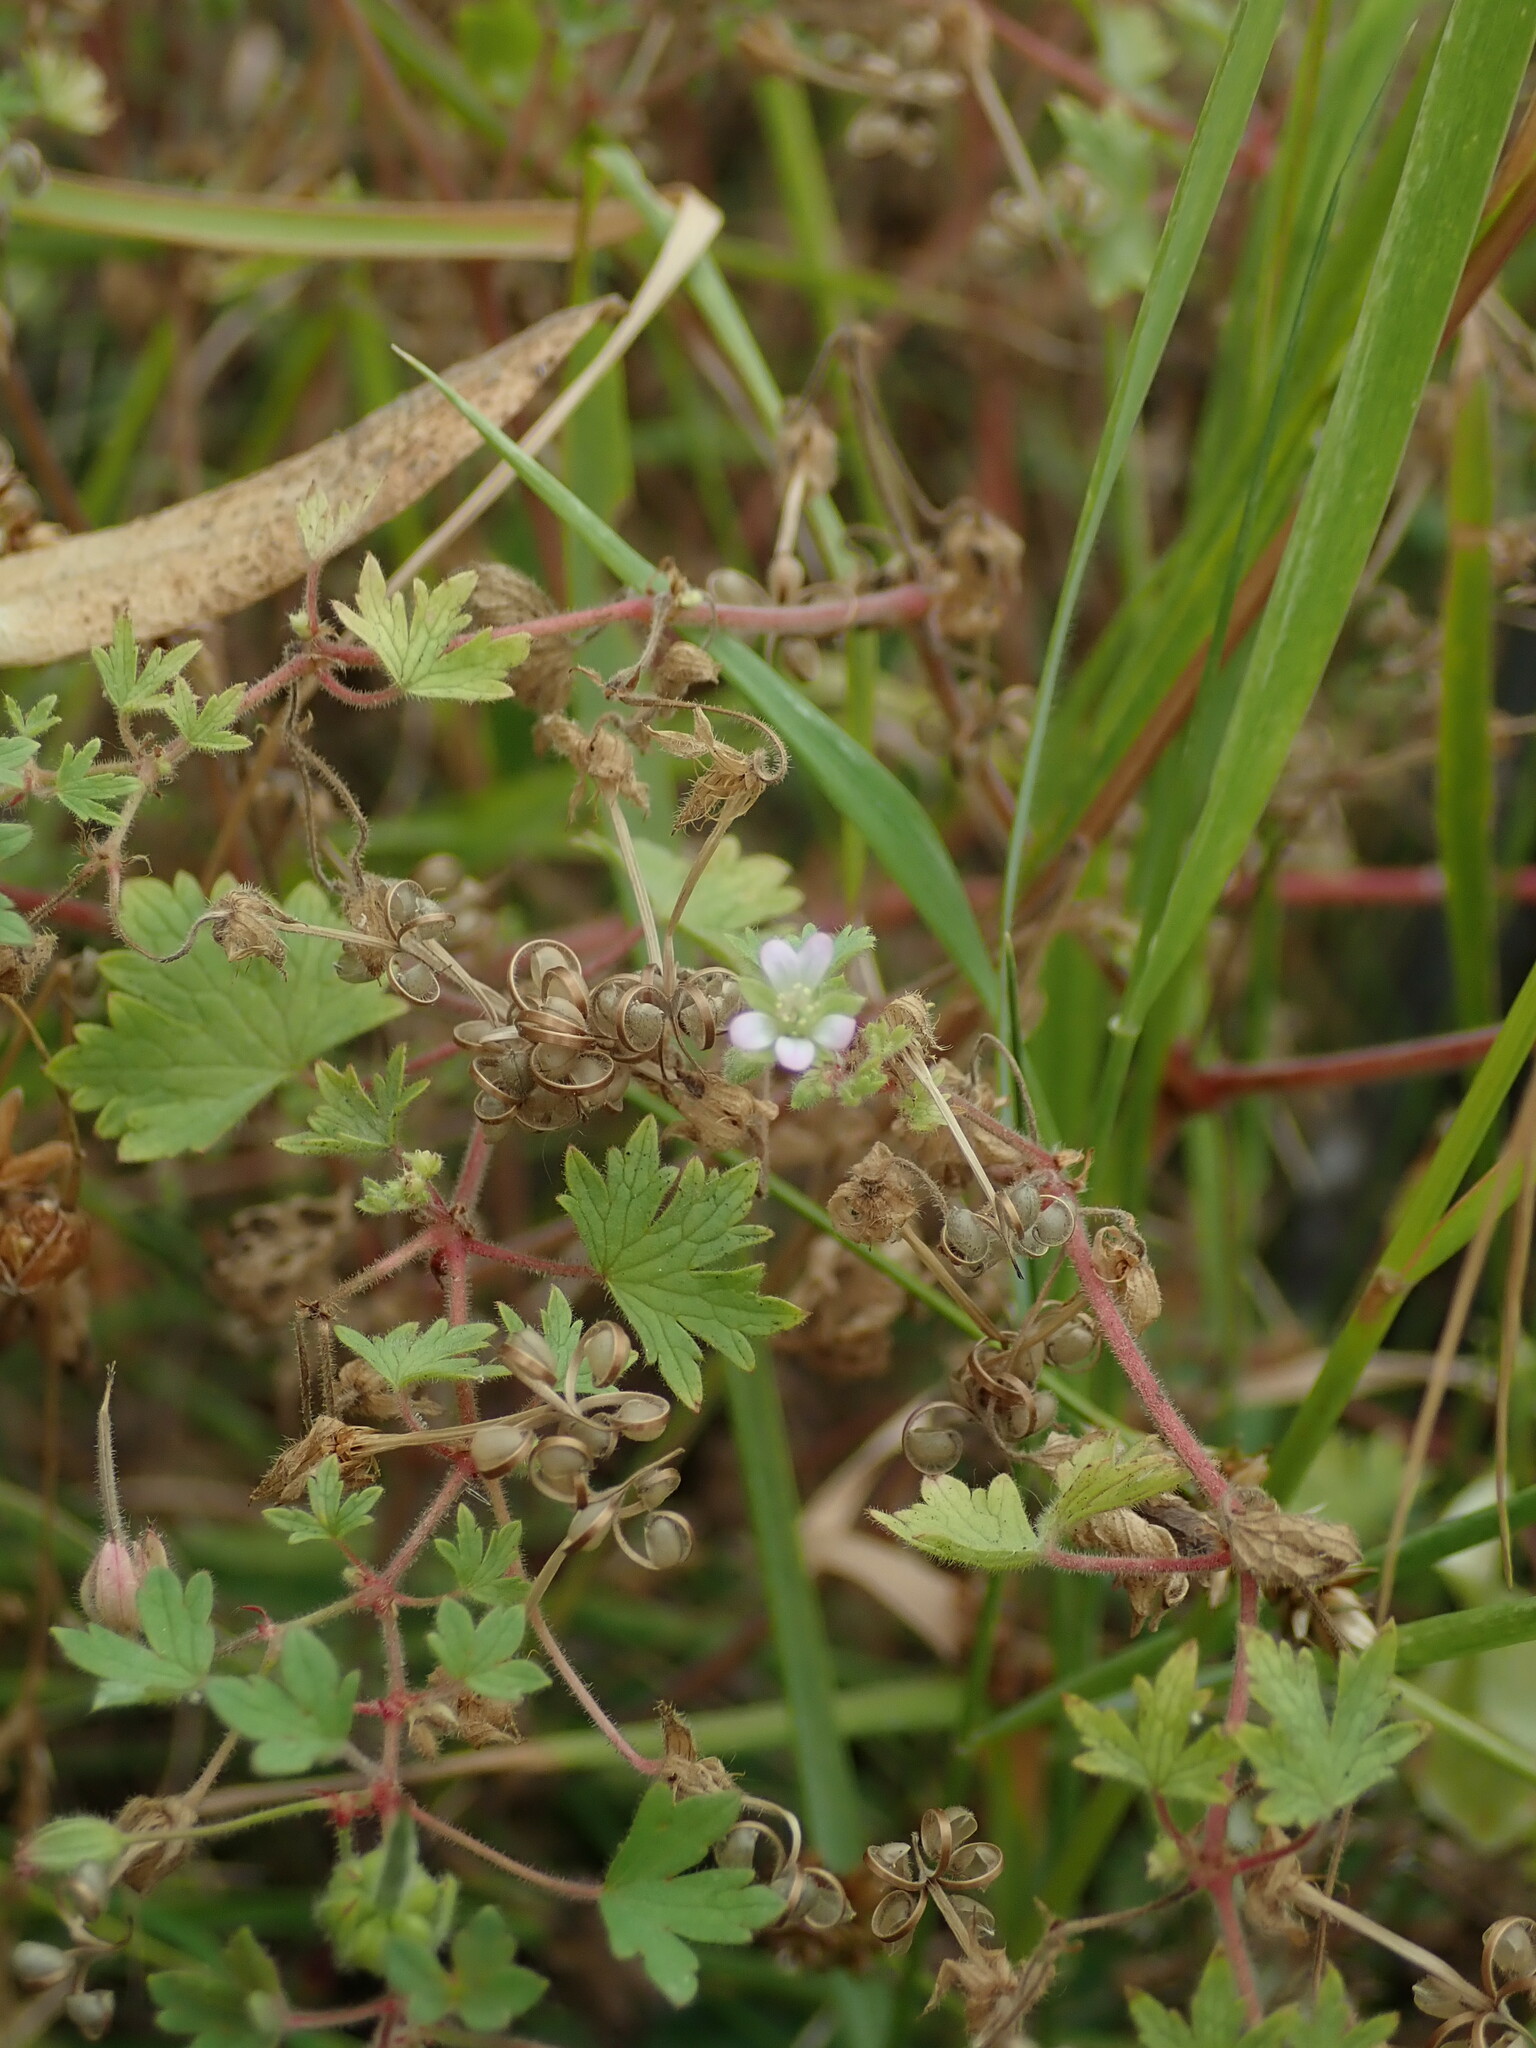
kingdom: Plantae
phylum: Tracheophyta
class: Magnoliopsida
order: Geraniales
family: Geraniaceae
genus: Geranium
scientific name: Geranium rotundifolium
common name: Round-leaved crane's-bill
